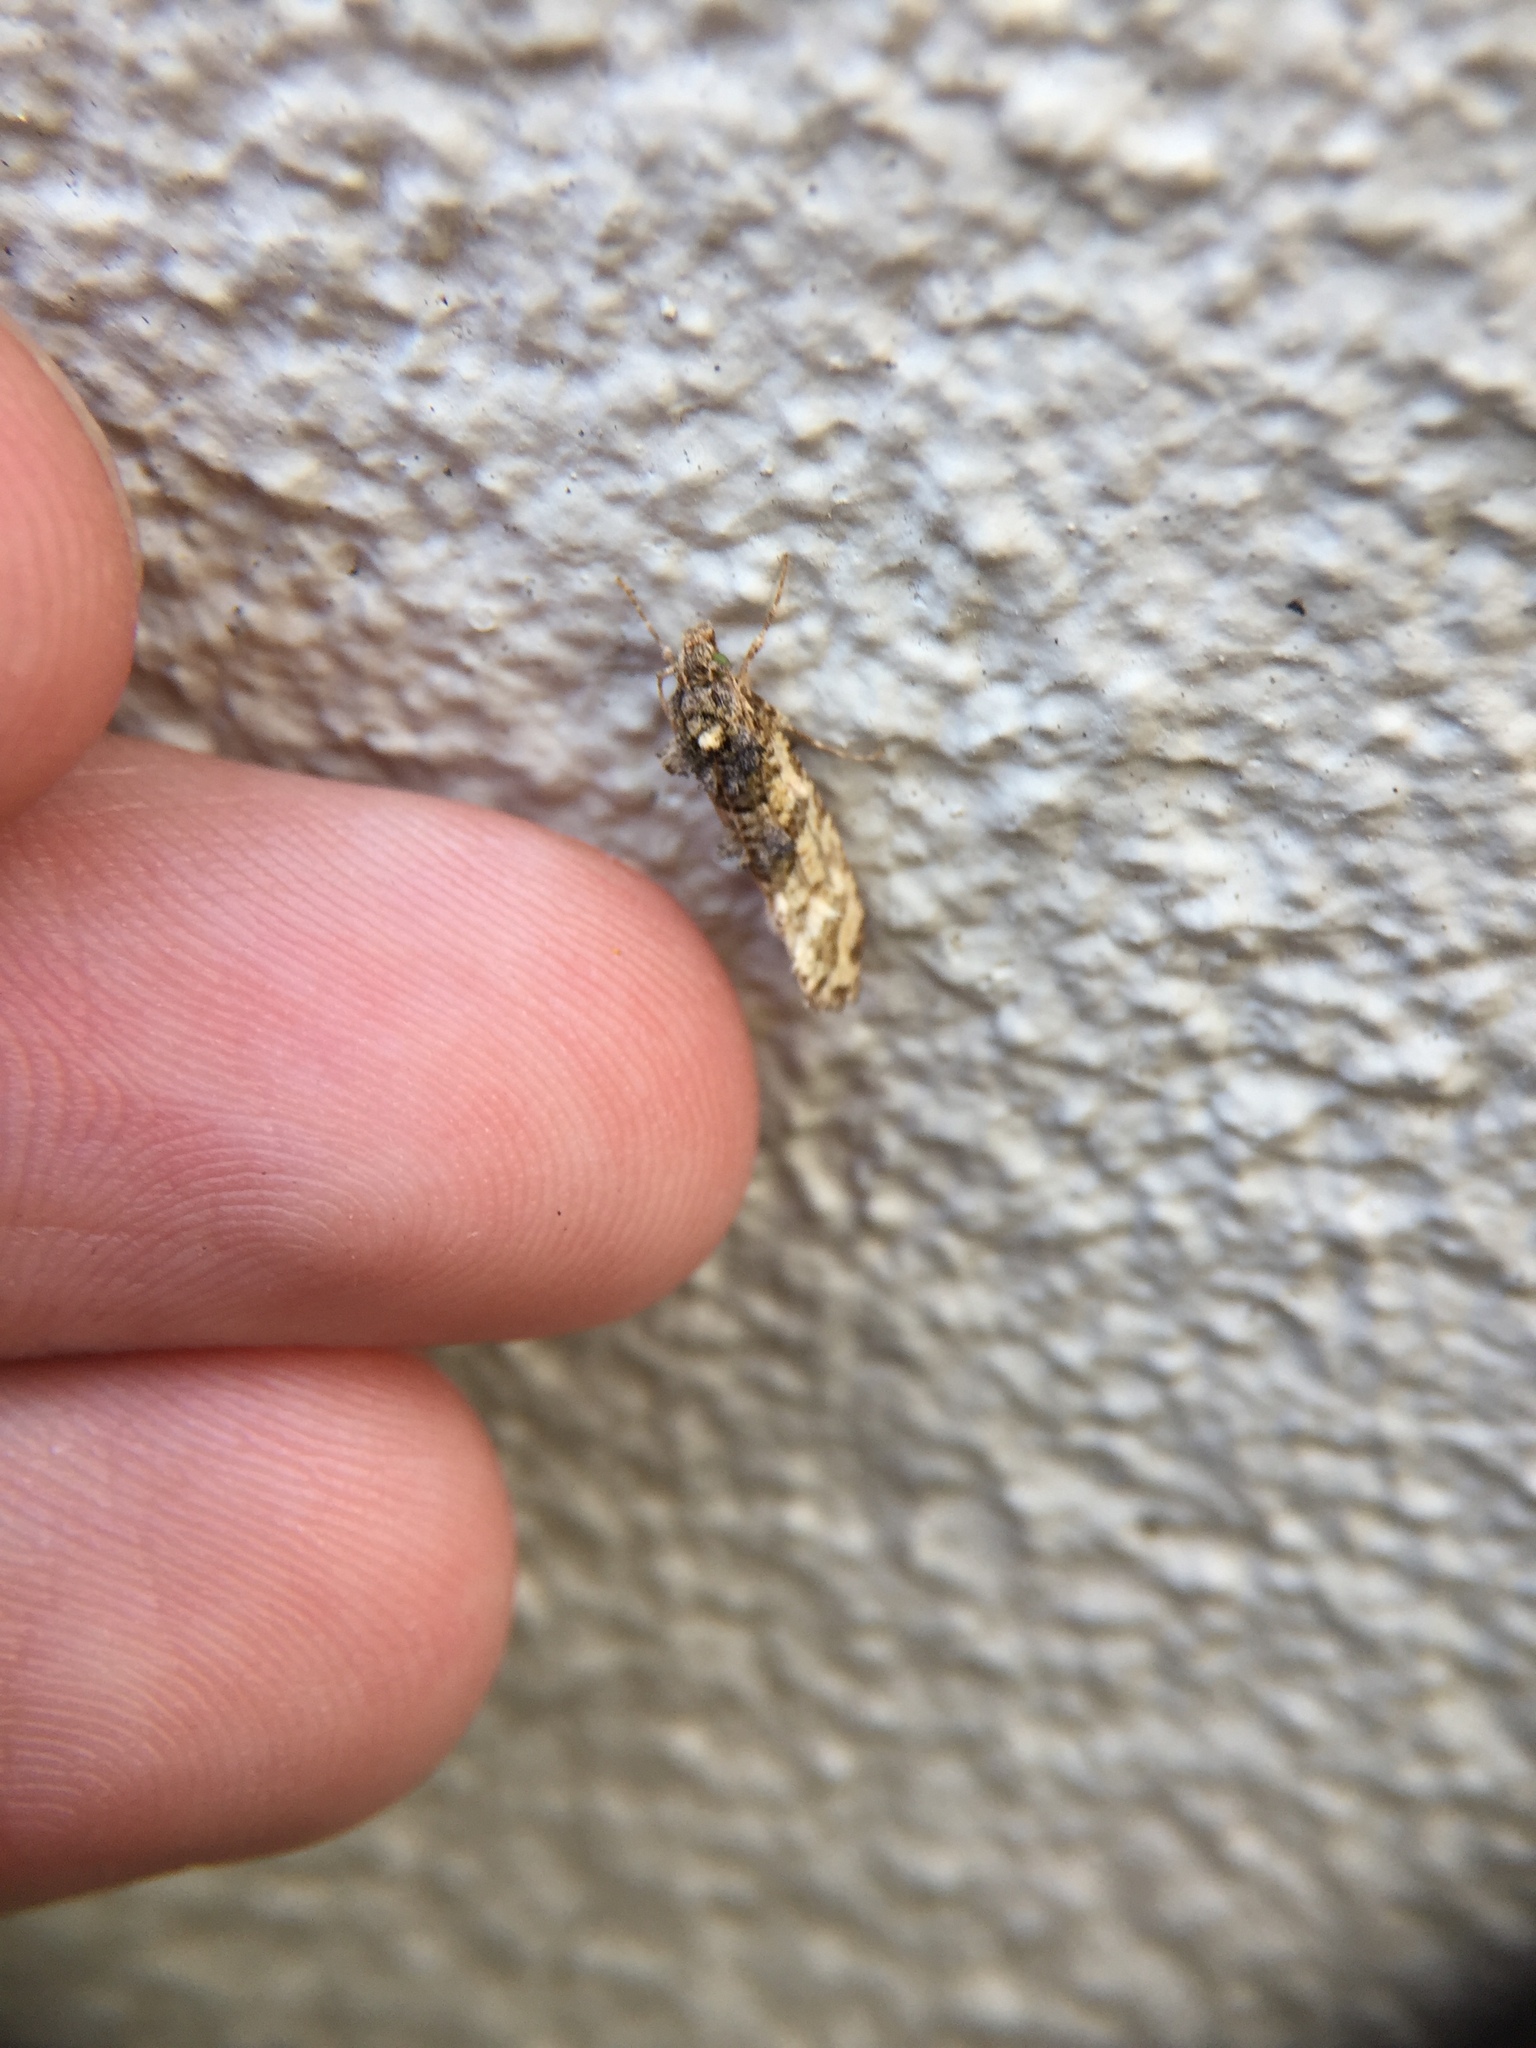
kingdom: Animalia
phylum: Arthropoda
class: Insecta
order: Lepidoptera
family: Tineidae
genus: Lysiphragma
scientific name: Lysiphragma mixochlora
